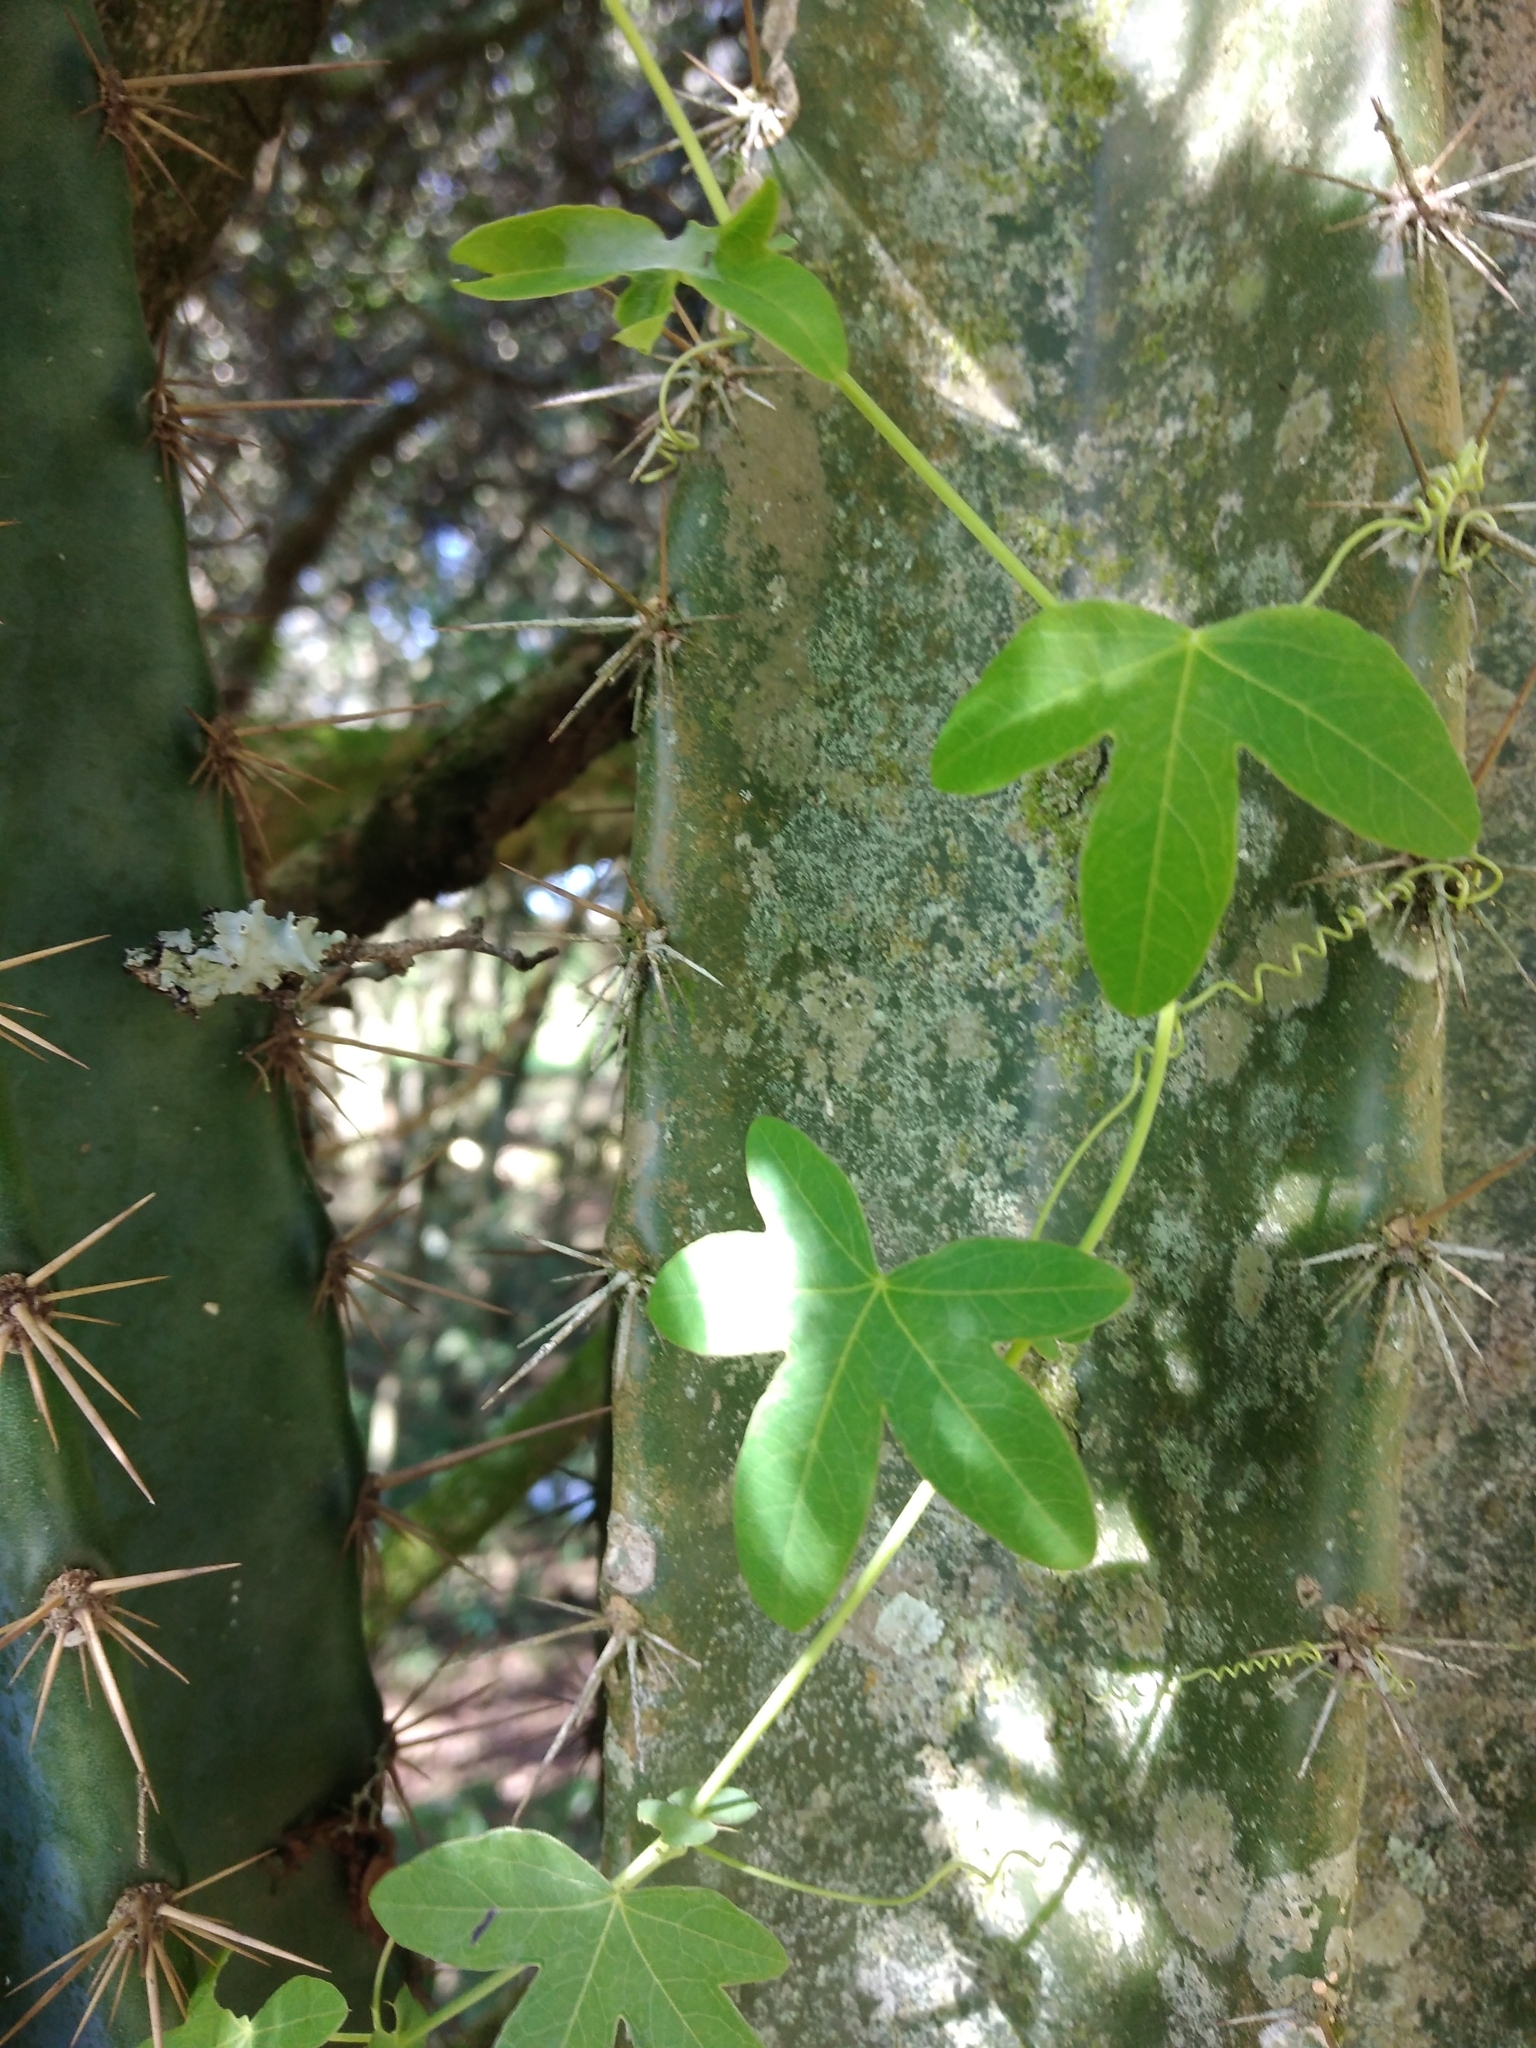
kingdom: Plantae
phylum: Tracheophyta
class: Magnoliopsida
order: Malpighiales
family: Passifloraceae
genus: Passiflora
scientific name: Passiflora caerulea
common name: Blue passionflower
